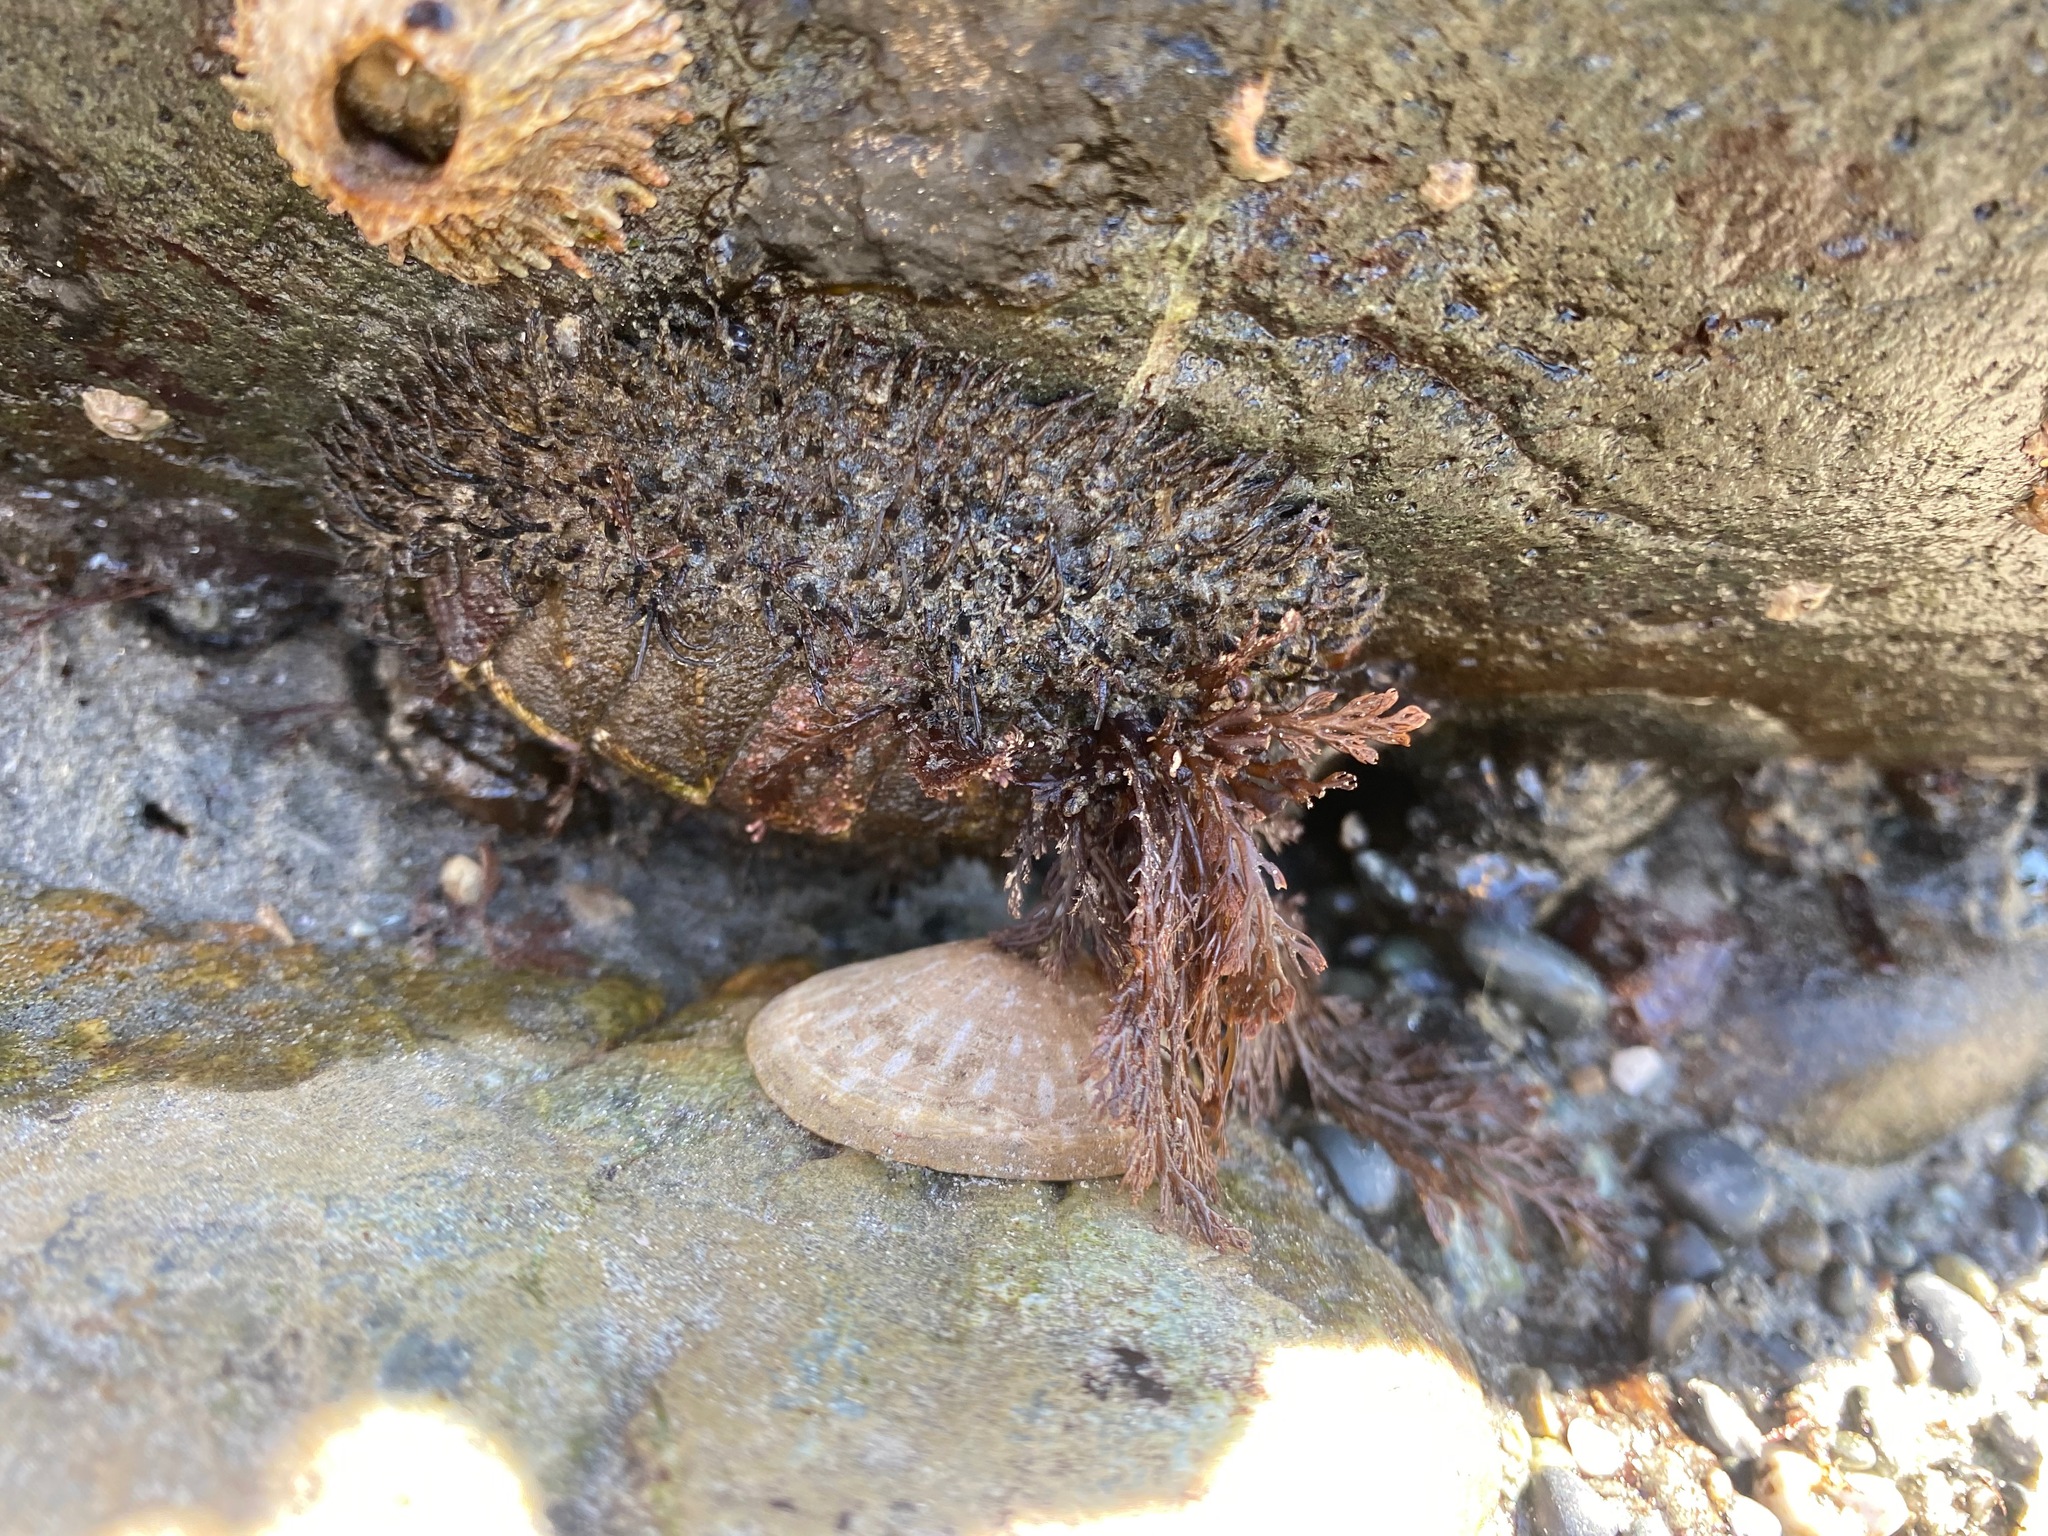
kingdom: Animalia
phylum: Mollusca
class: Polyplacophora
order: Chitonida
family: Mopaliidae
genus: Mopalia
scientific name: Mopalia muscosa
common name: Mossy chiton
